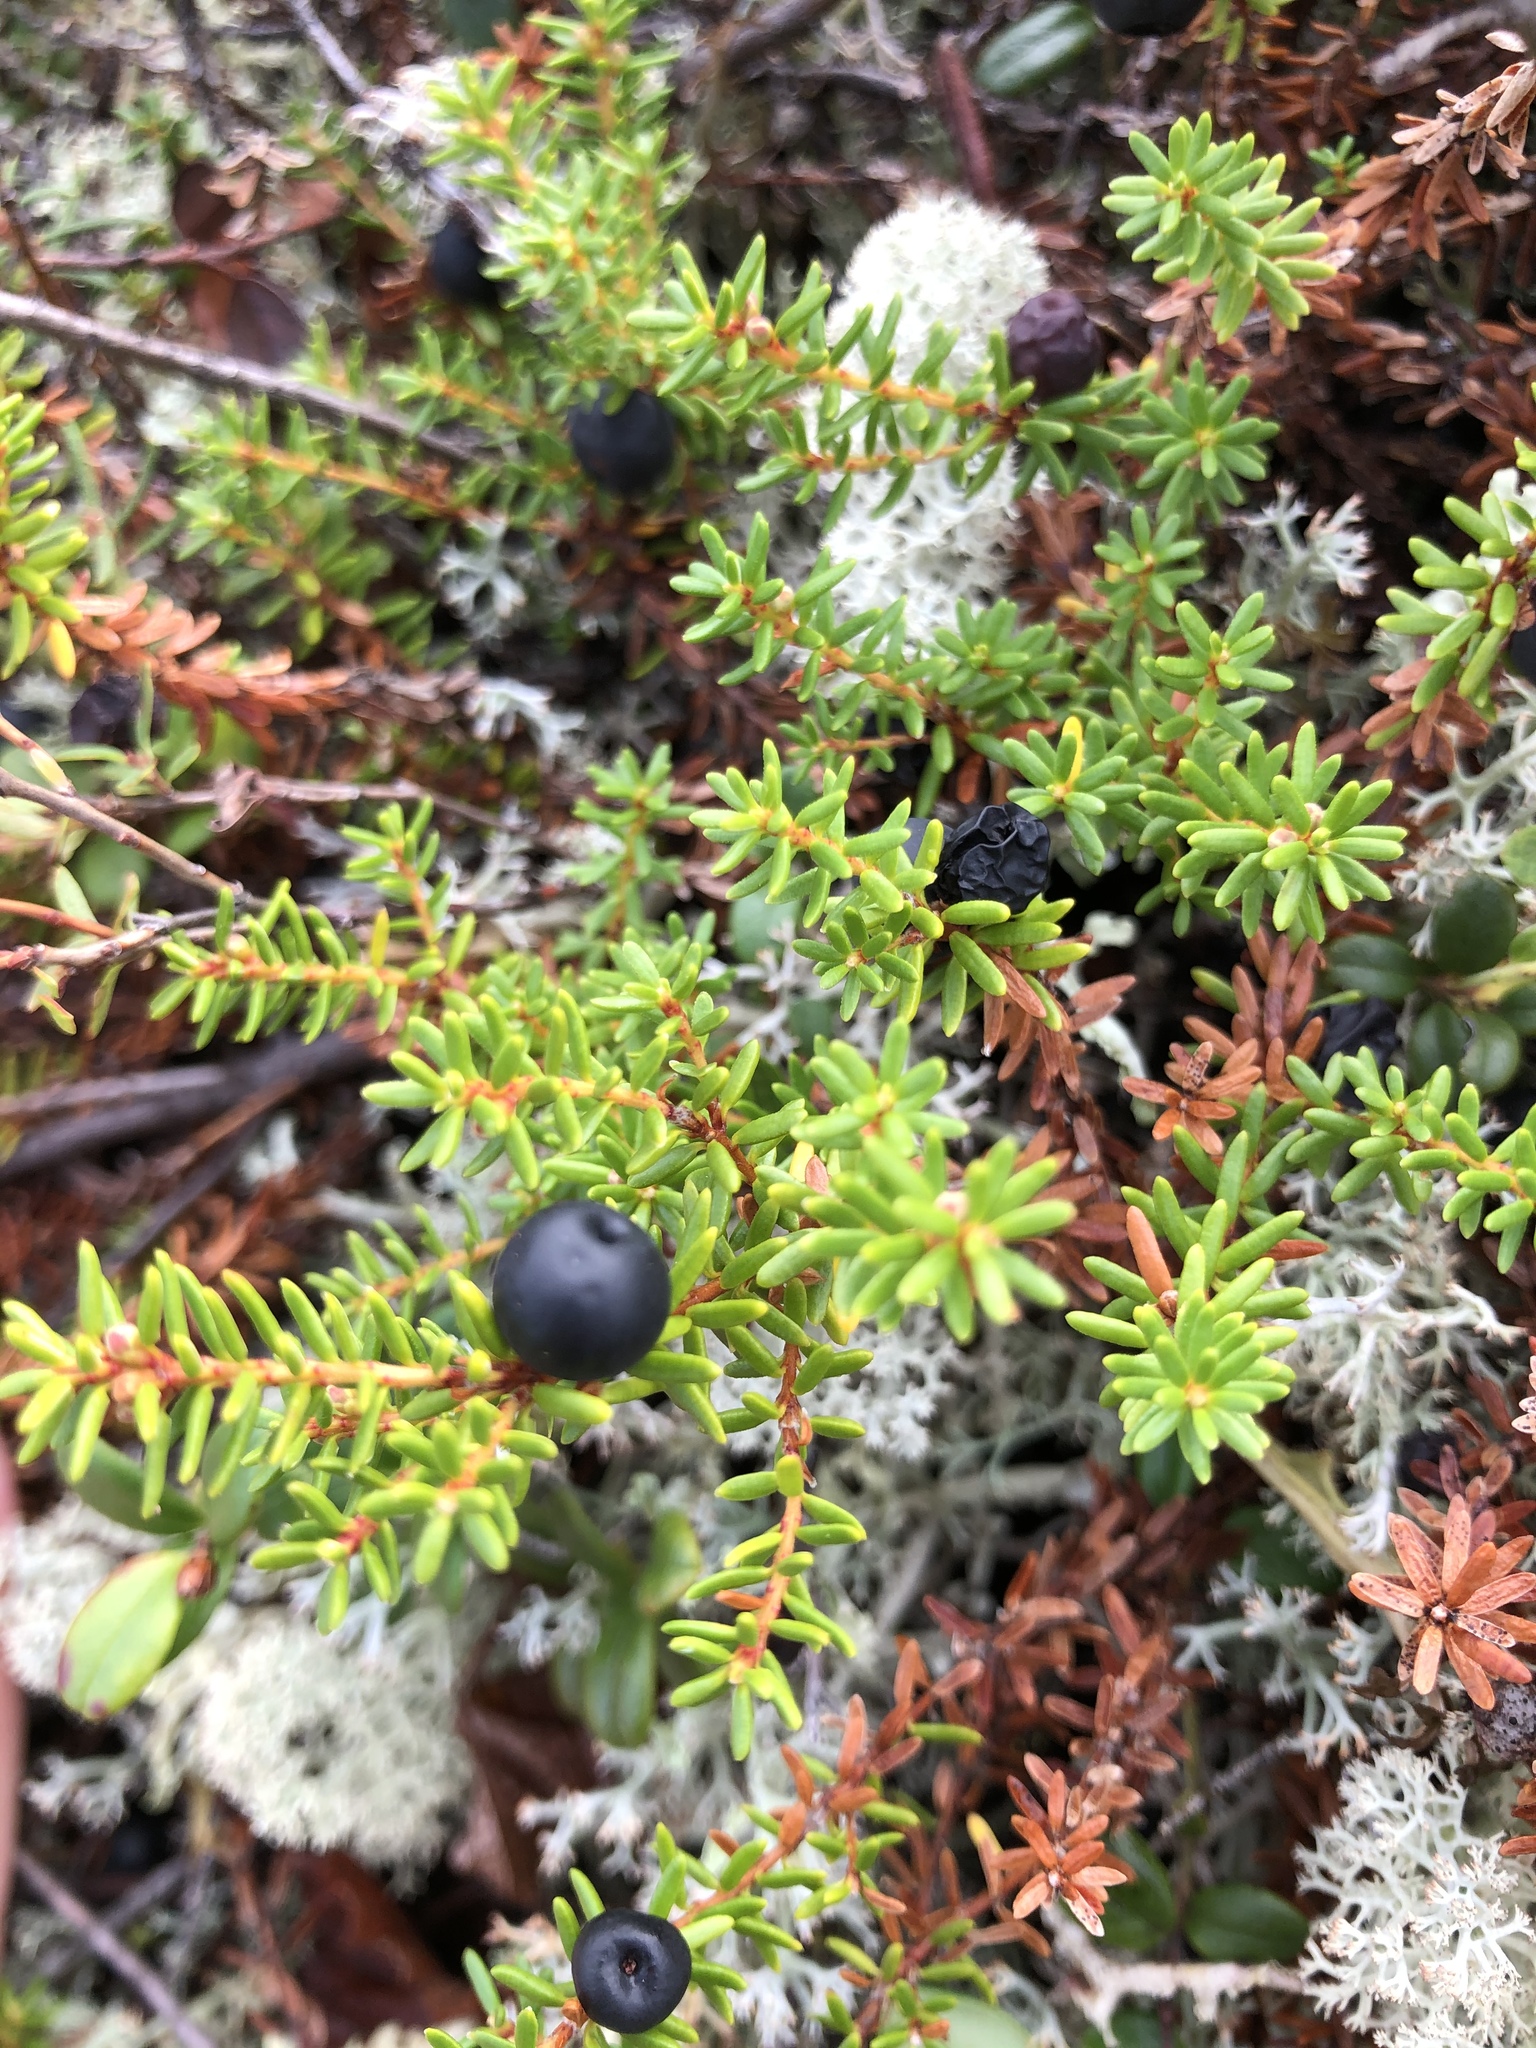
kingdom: Plantae
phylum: Tracheophyta
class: Magnoliopsida
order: Ericales
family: Ericaceae
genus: Empetrum
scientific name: Empetrum nigrum
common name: Black crowberry
